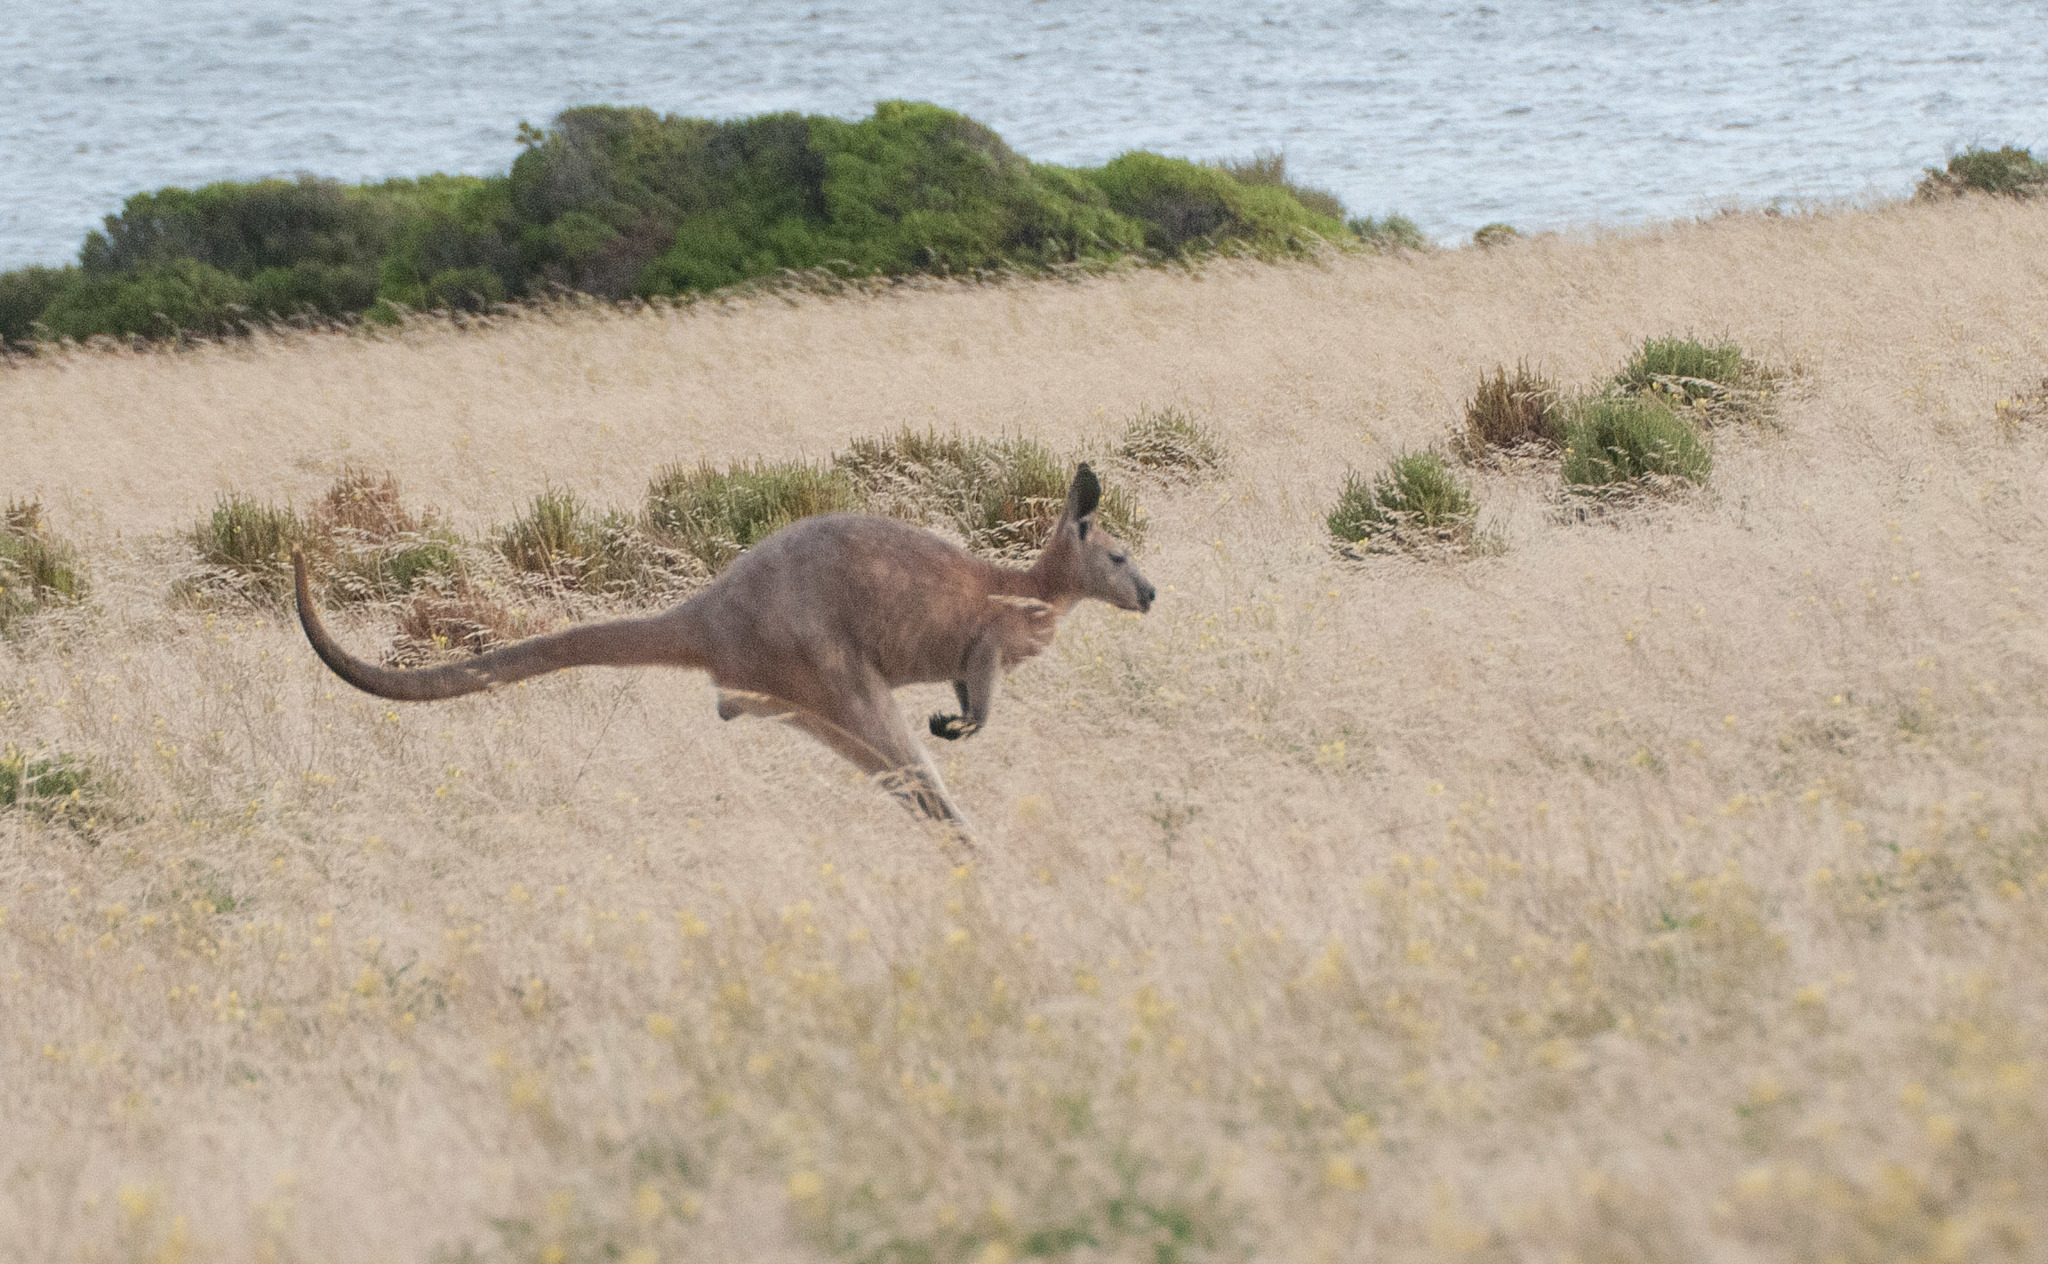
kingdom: Animalia
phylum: Chordata
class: Mammalia
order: Diprotodontia
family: Macropodidae
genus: Macropus
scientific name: Macropus robustus
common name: Eastern wallaroo
